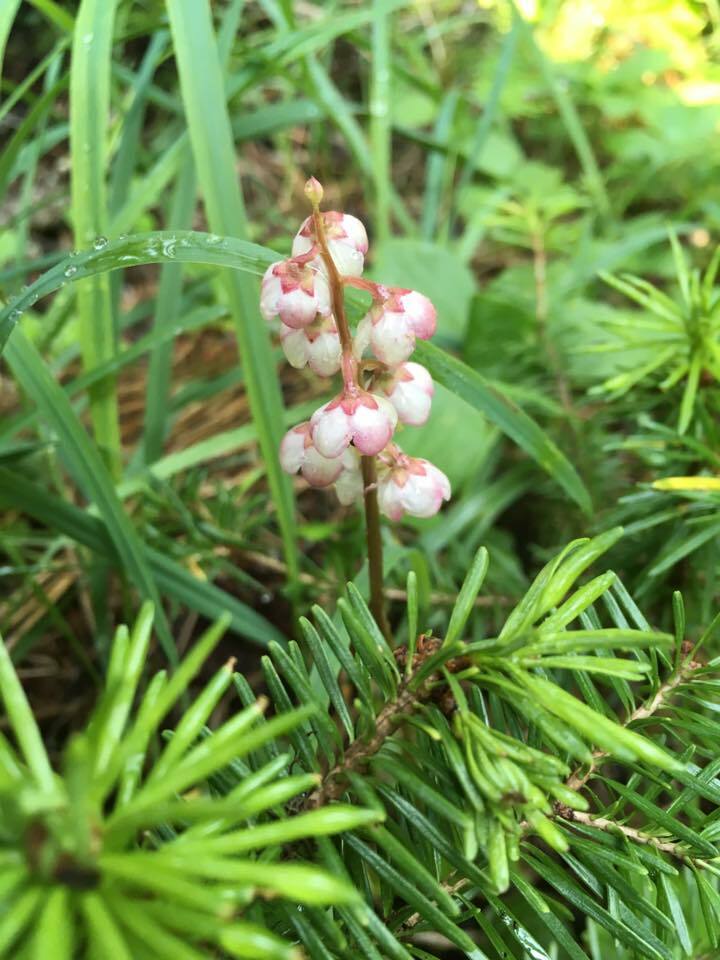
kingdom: Plantae
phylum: Tracheophyta
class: Magnoliopsida
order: Ericales
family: Ericaceae
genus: Pyrola
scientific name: Pyrola asarifolia
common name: Bog wintergreen
